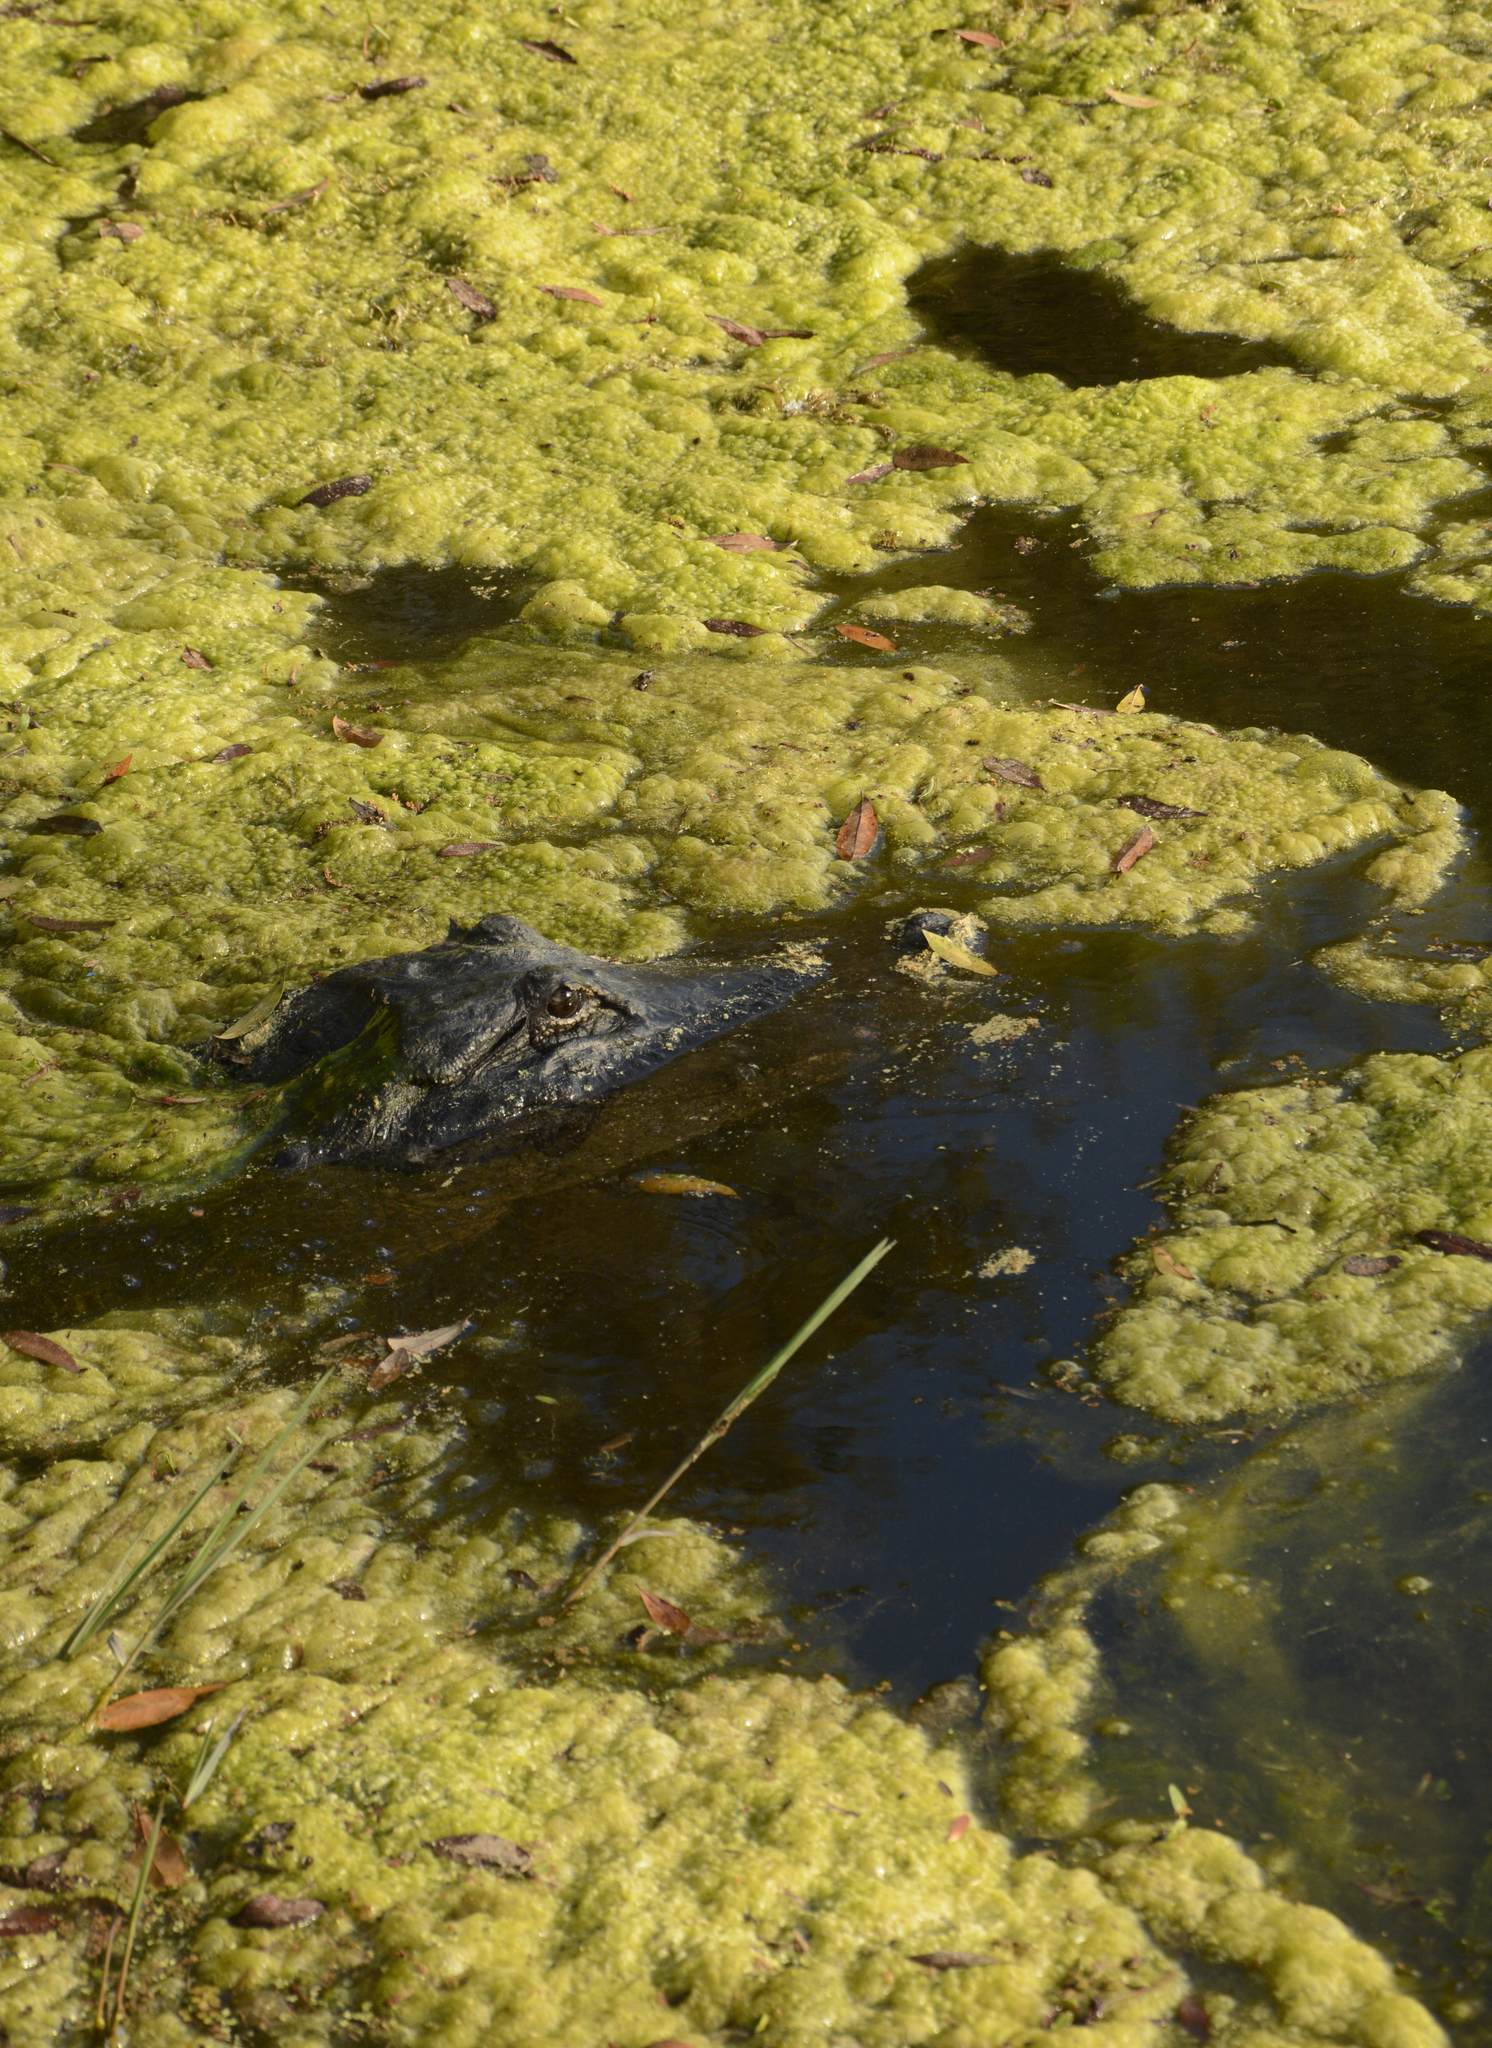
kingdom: Animalia
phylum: Chordata
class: Crocodylia
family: Alligatoridae
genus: Alligator
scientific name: Alligator mississippiensis
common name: American alligator
